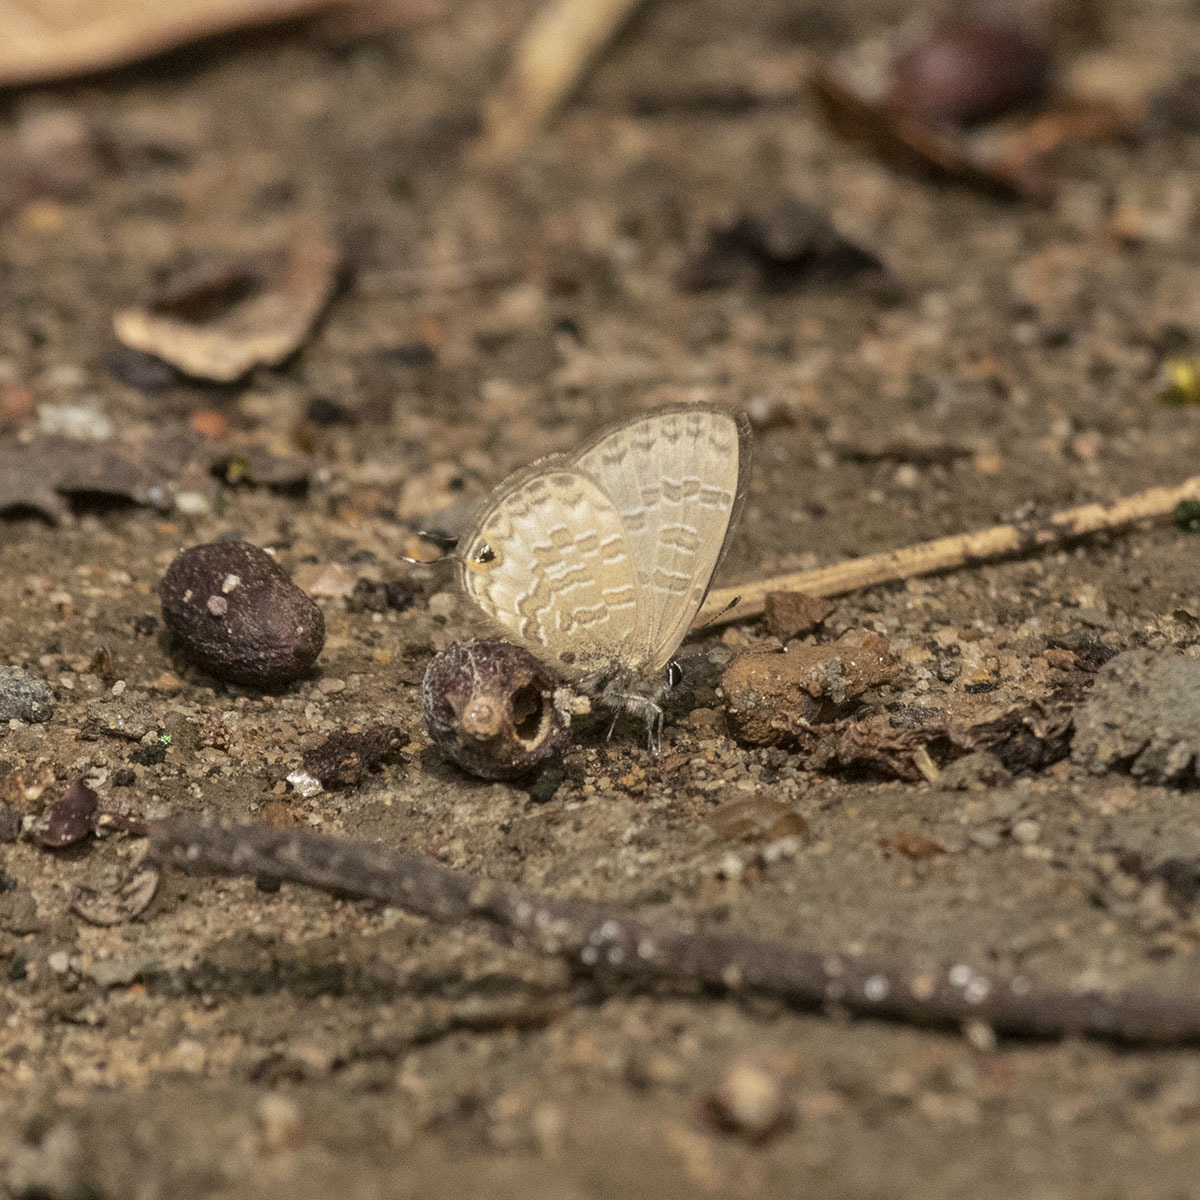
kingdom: Animalia
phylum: Arthropoda
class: Insecta
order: Lepidoptera
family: Lycaenidae
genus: Prosotas
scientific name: Prosotas nora
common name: Common line blue
